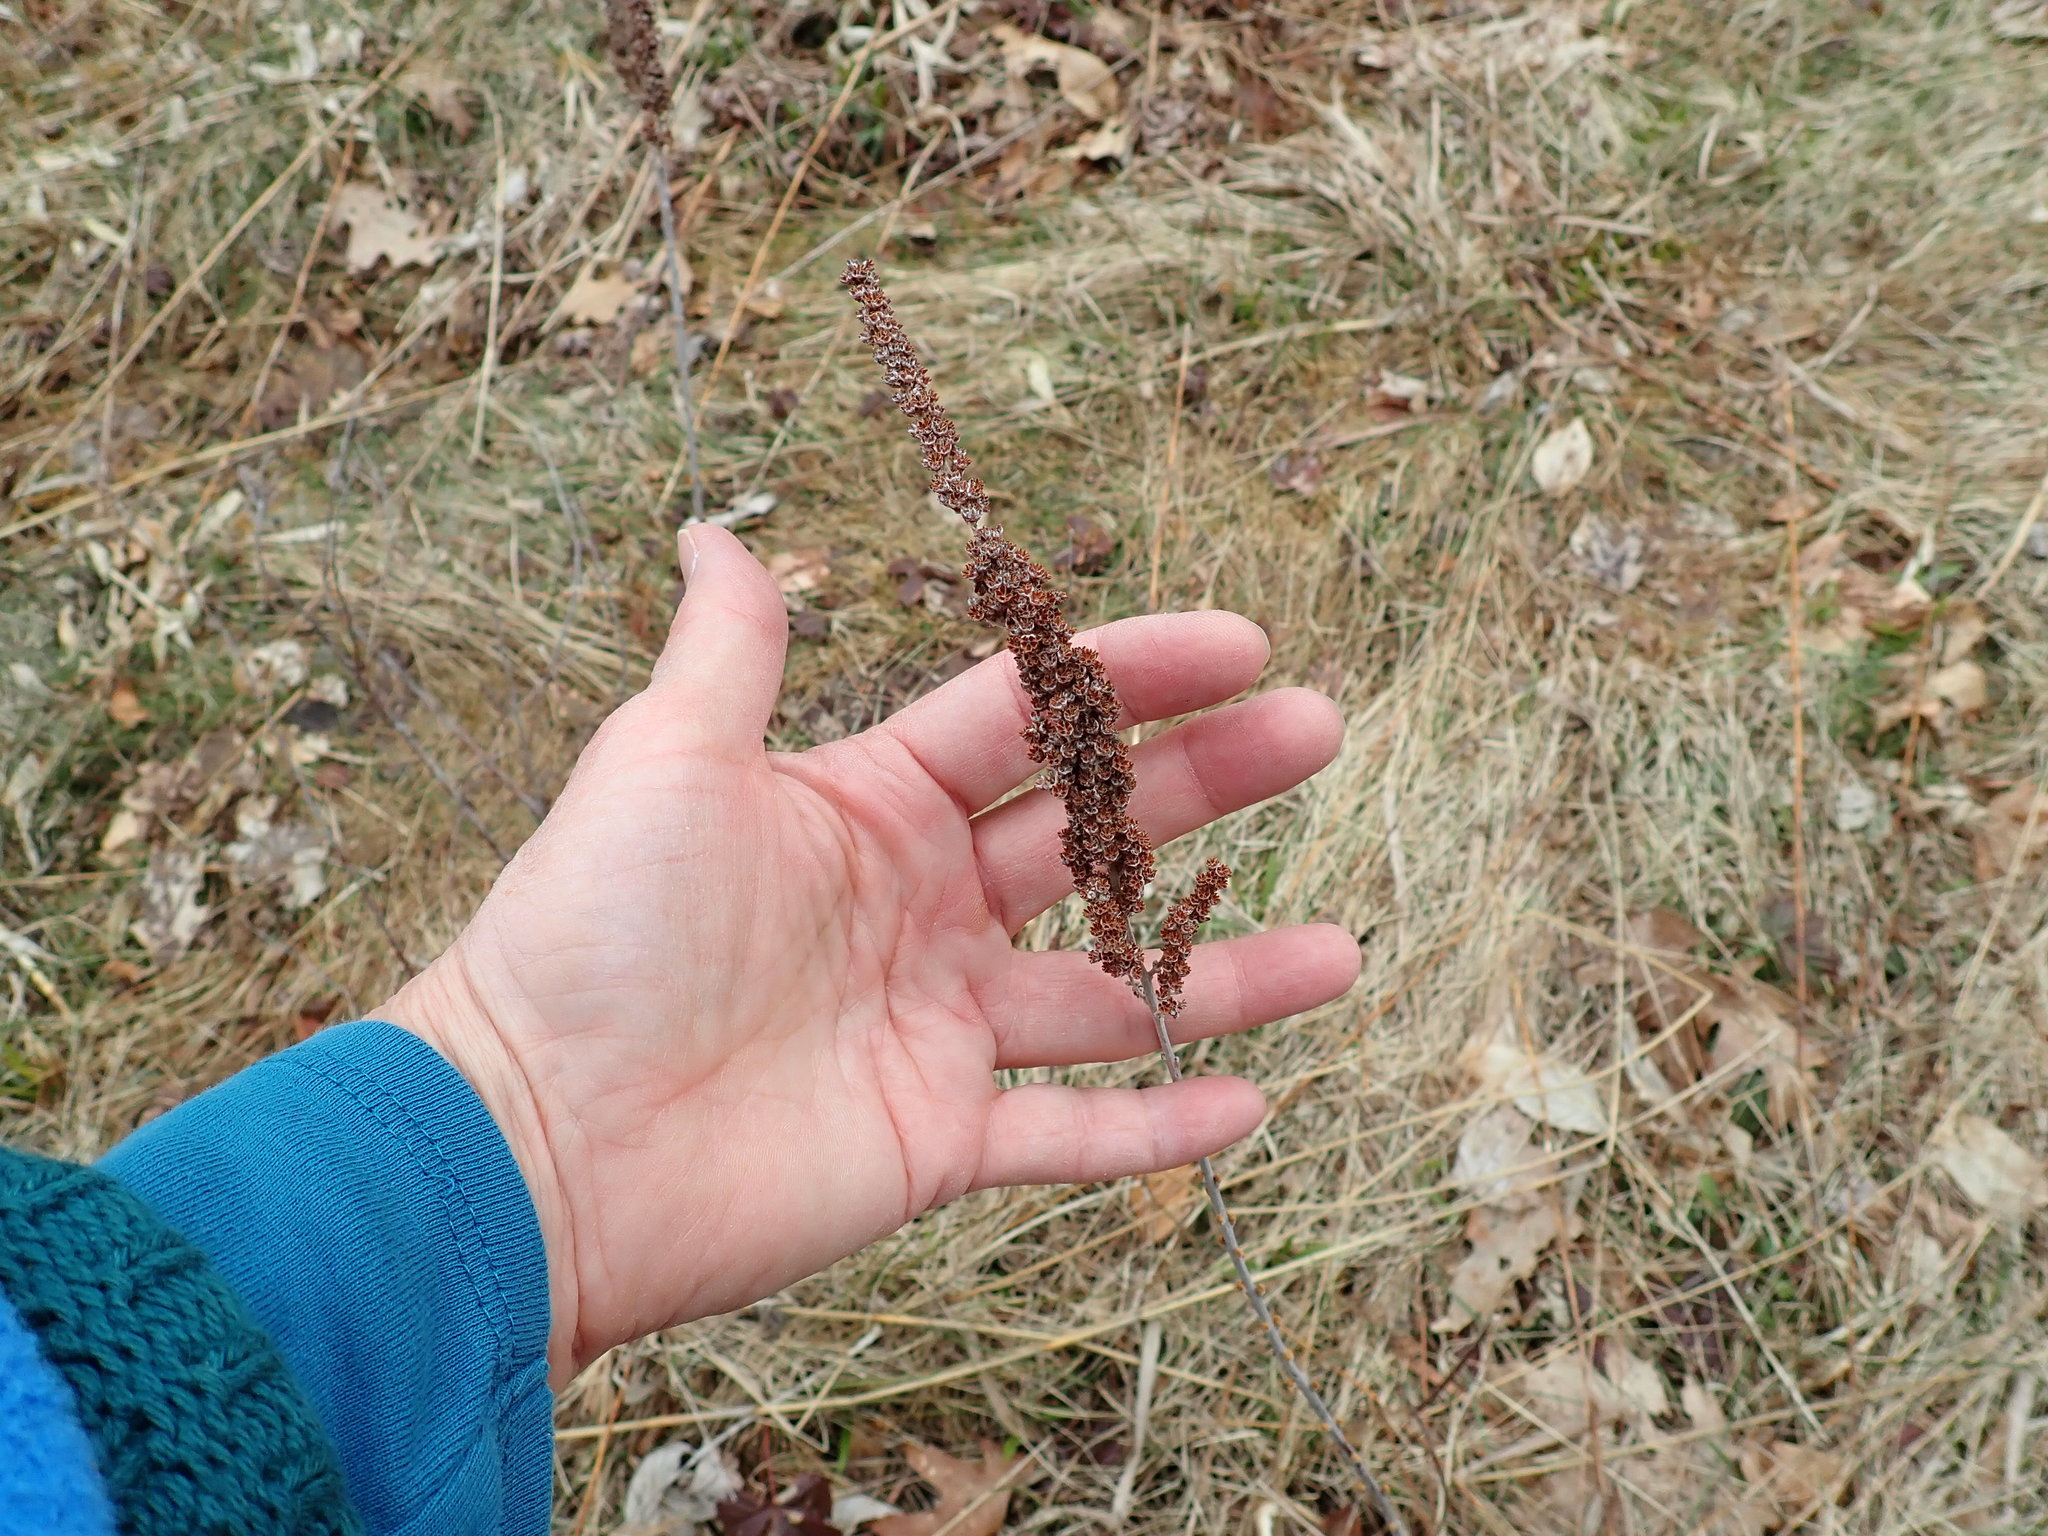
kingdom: Plantae
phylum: Tracheophyta
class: Magnoliopsida
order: Rosales
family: Rosaceae
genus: Spiraea
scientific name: Spiraea tomentosa
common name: Hardhack
